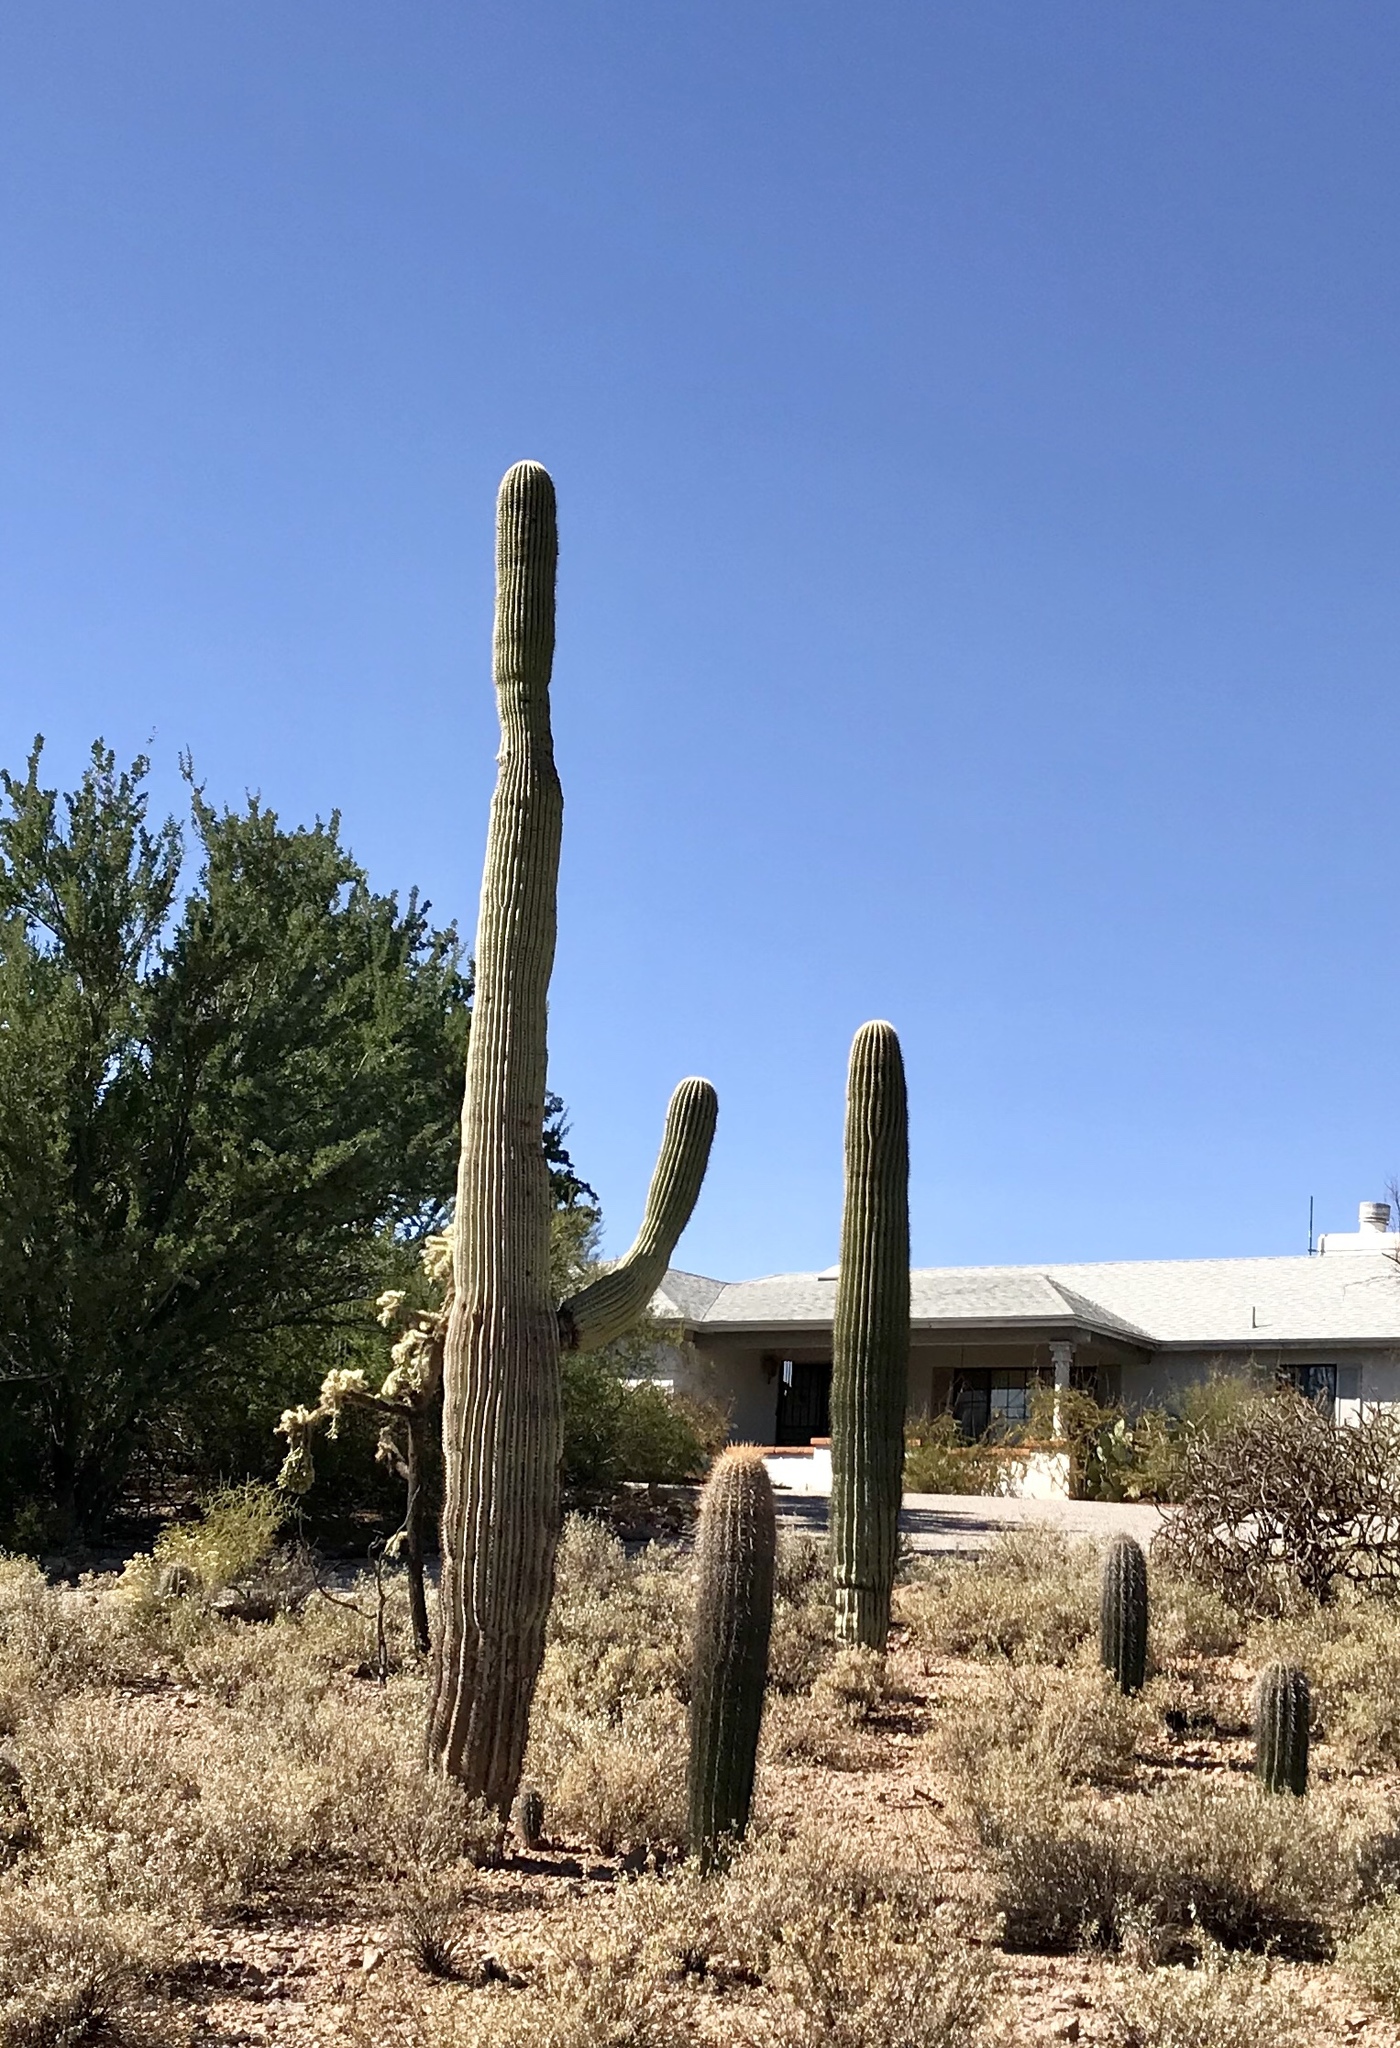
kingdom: Plantae
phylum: Tracheophyta
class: Magnoliopsida
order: Caryophyllales
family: Cactaceae
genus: Carnegiea
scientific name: Carnegiea gigantea
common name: Saguaro
